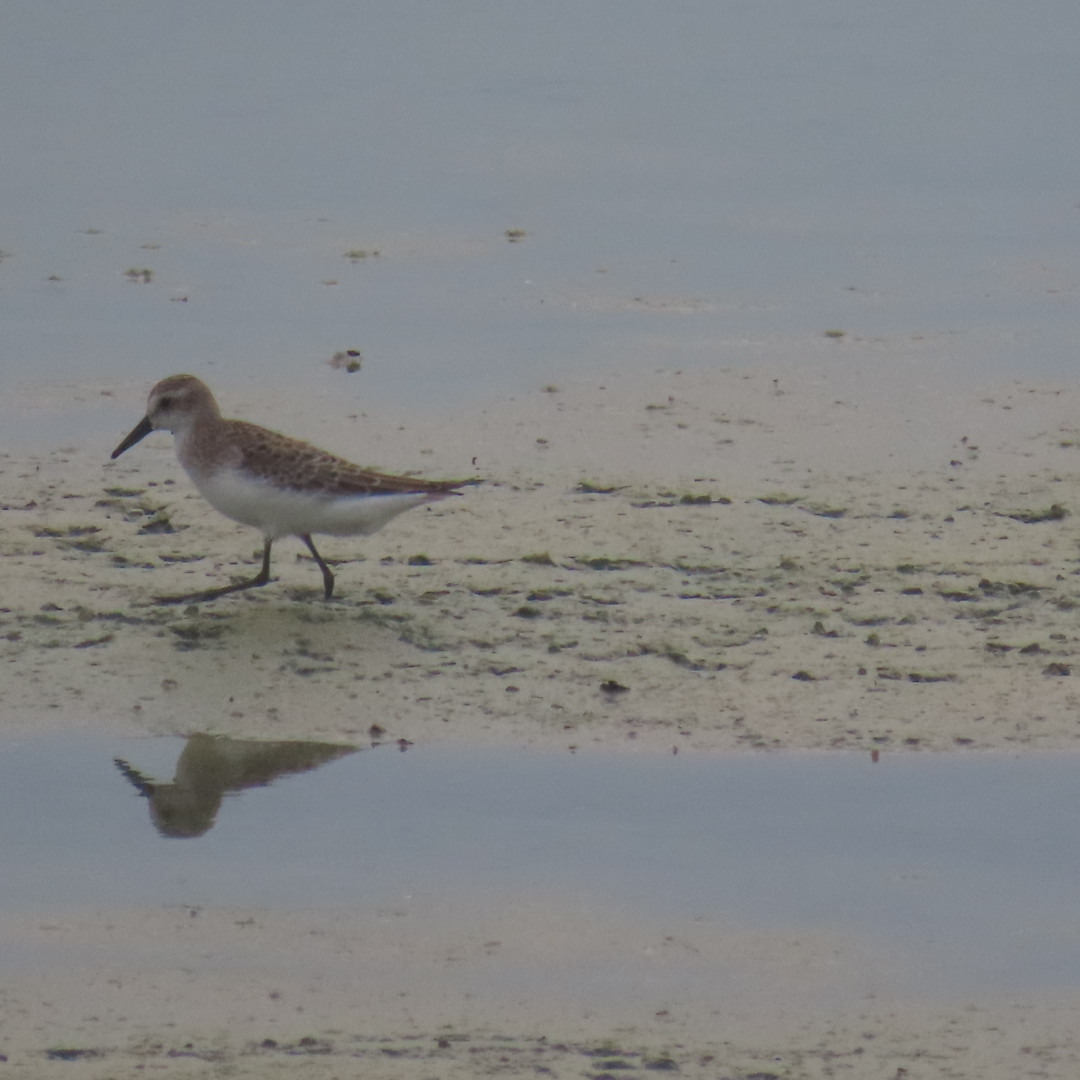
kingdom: Animalia
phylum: Chordata
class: Aves
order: Charadriiformes
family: Scolopacidae
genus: Calidris
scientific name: Calidris pusilla
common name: Semipalmated sandpiper
